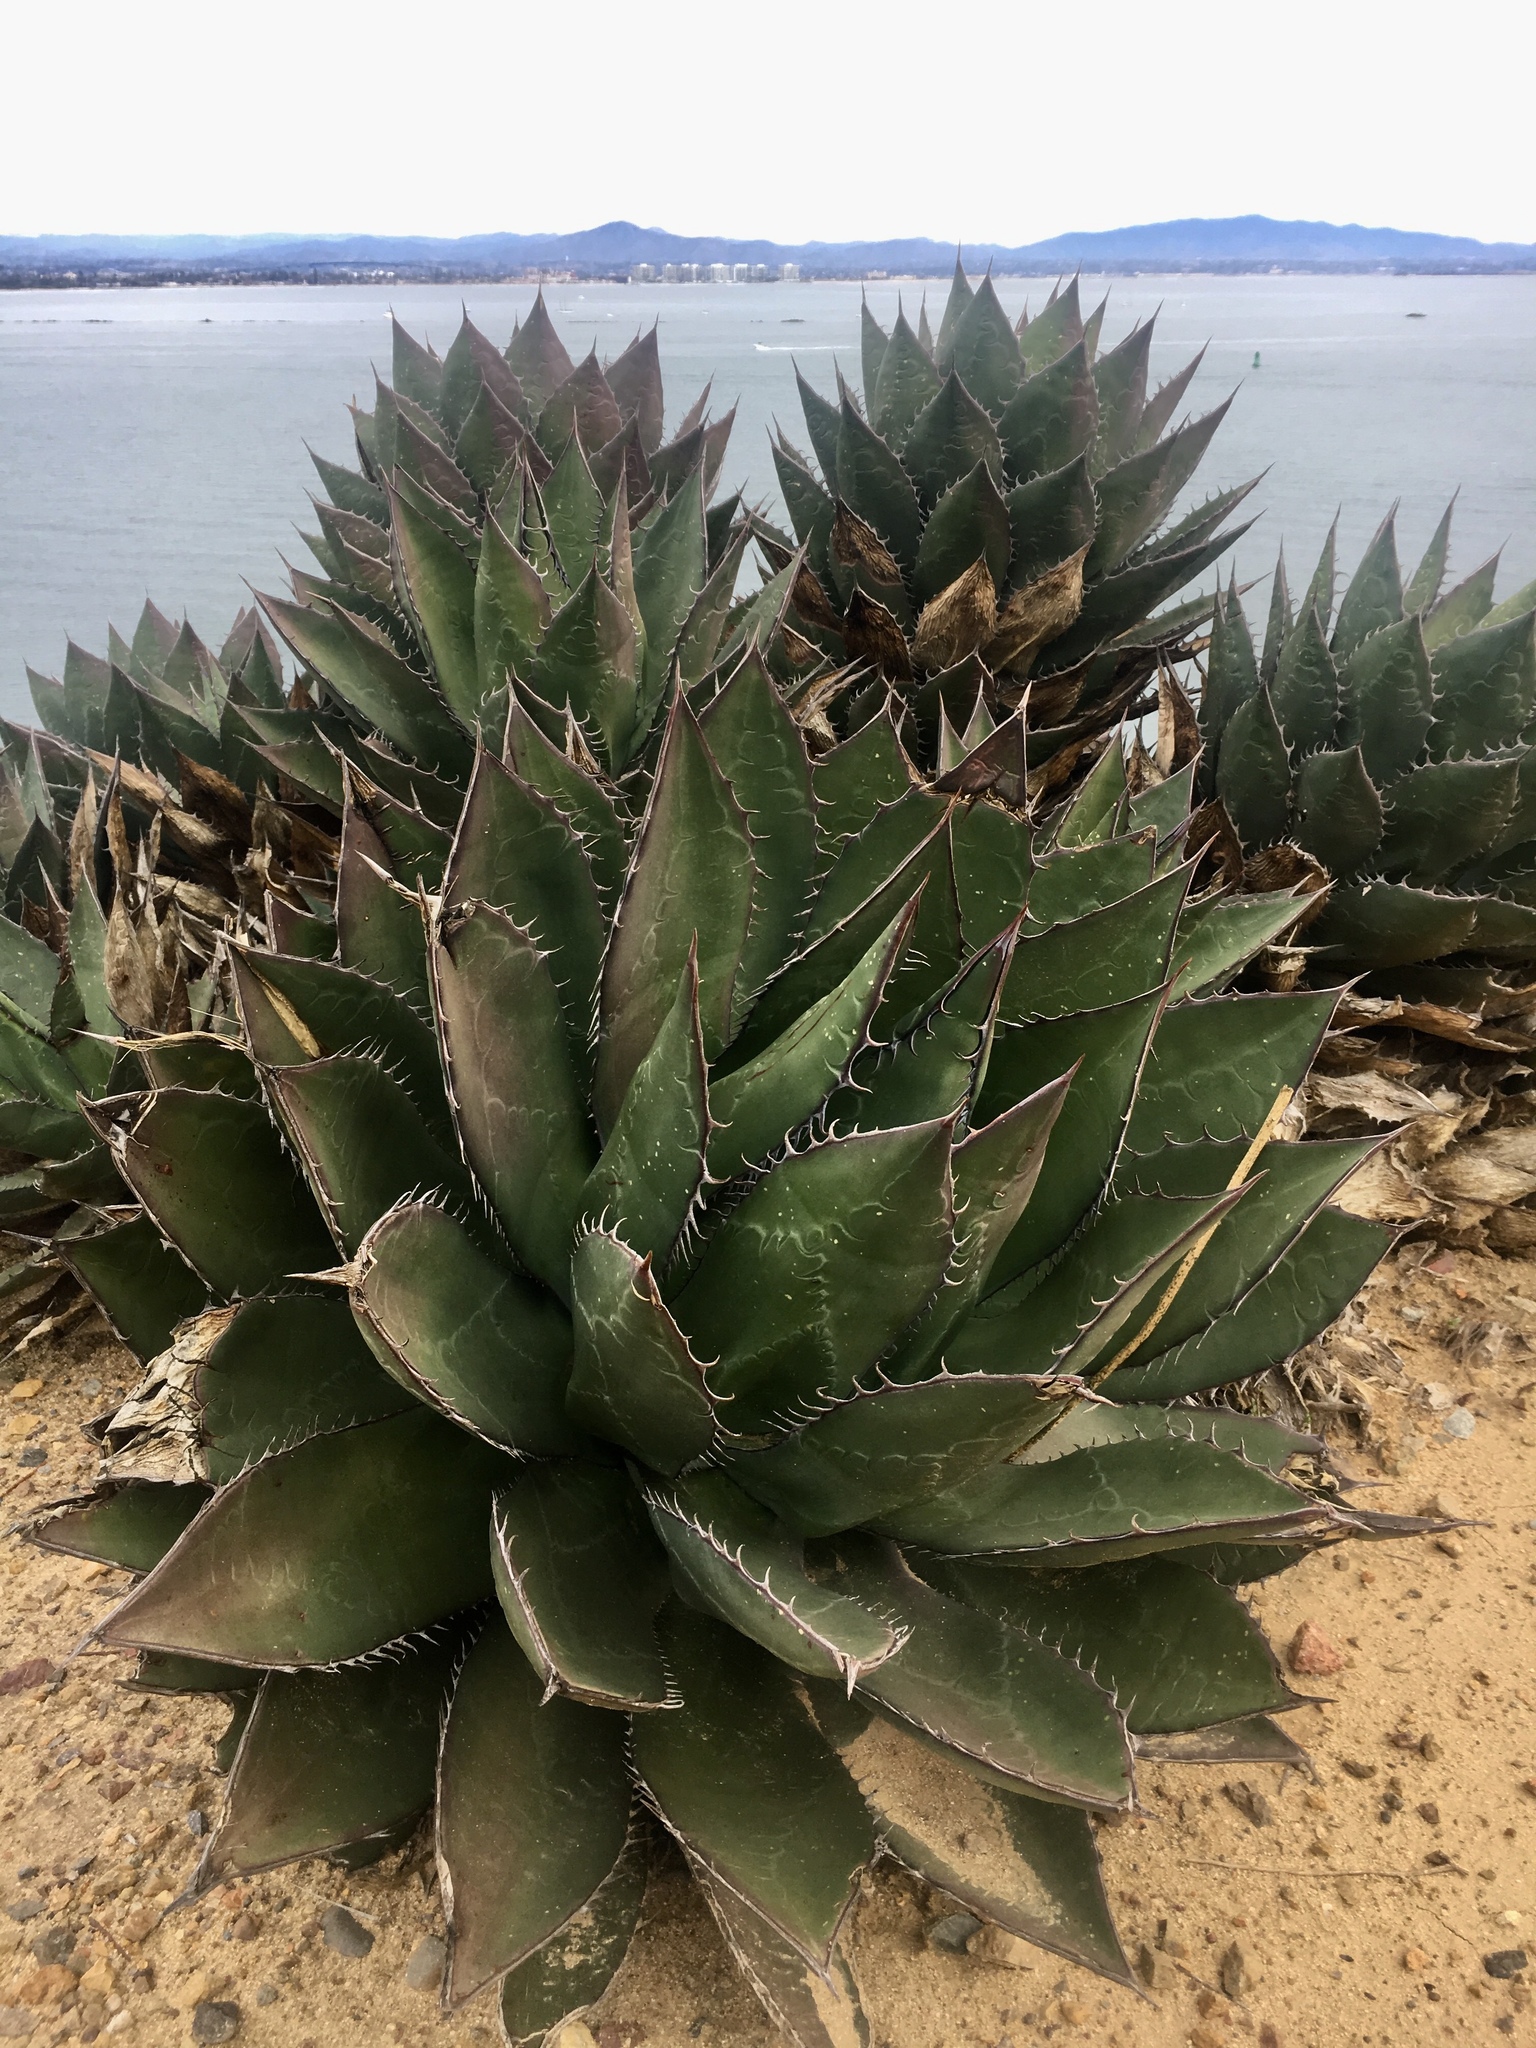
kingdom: Plantae
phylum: Tracheophyta
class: Liliopsida
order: Asparagales
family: Asparagaceae
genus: Agave
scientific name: Agave shawii
